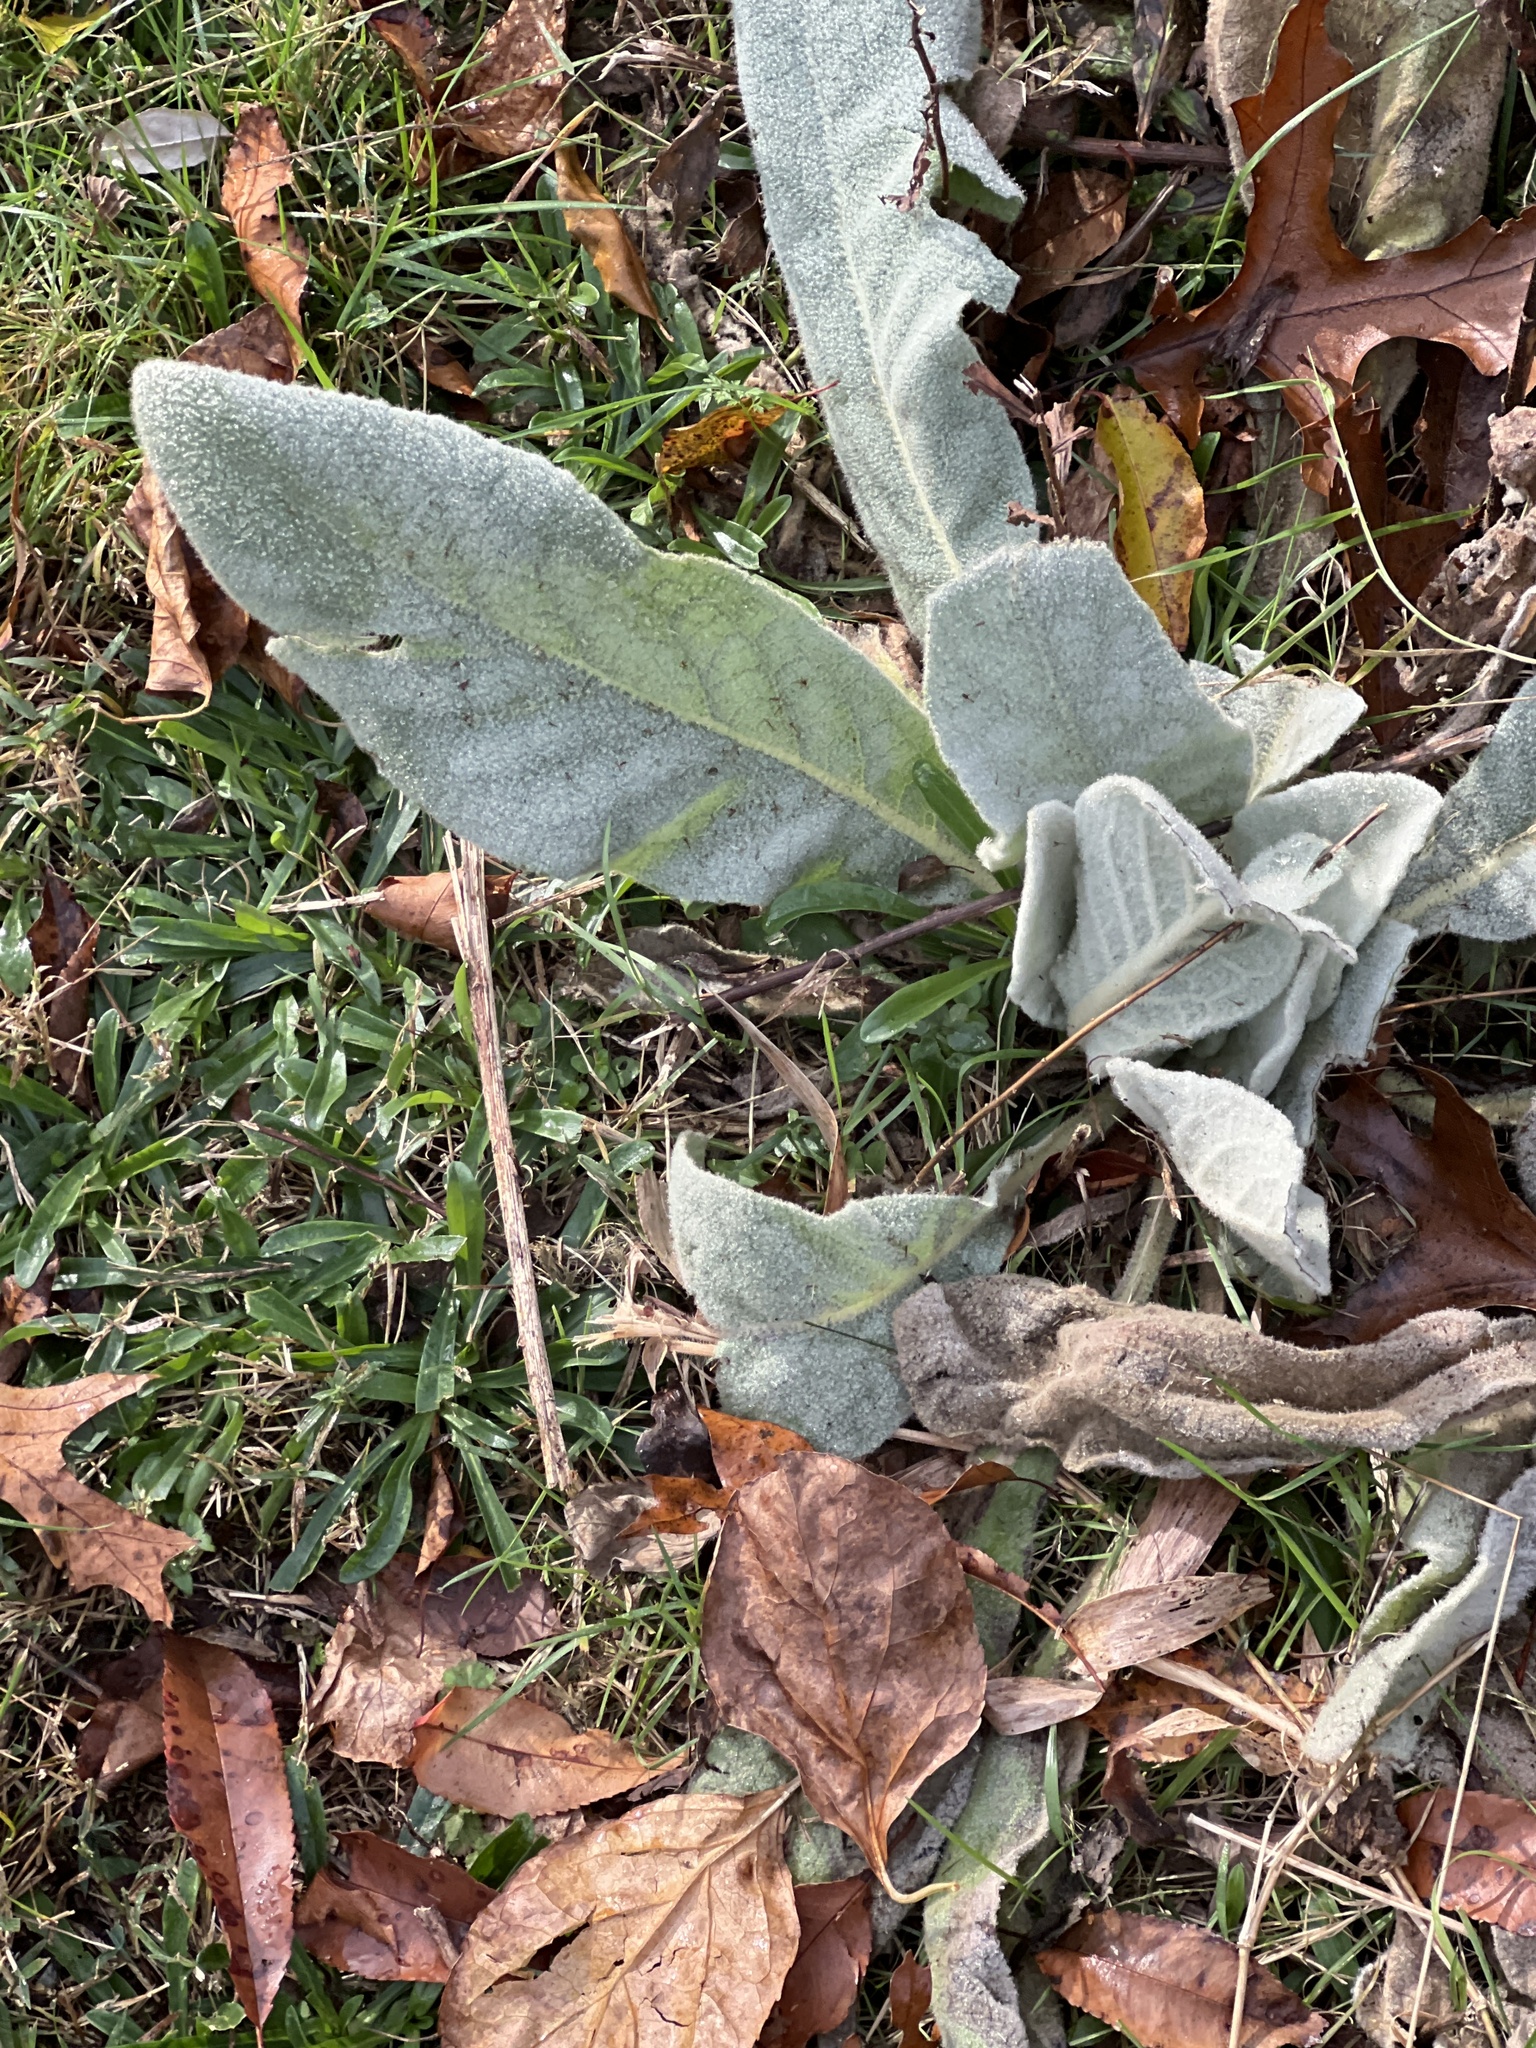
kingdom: Plantae
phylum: Tracheophyta
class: Magnoliopsida
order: Lamiales
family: Scrophulariaceae
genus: Verbascum
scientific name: Verbascum thapsus
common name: Common mullein
